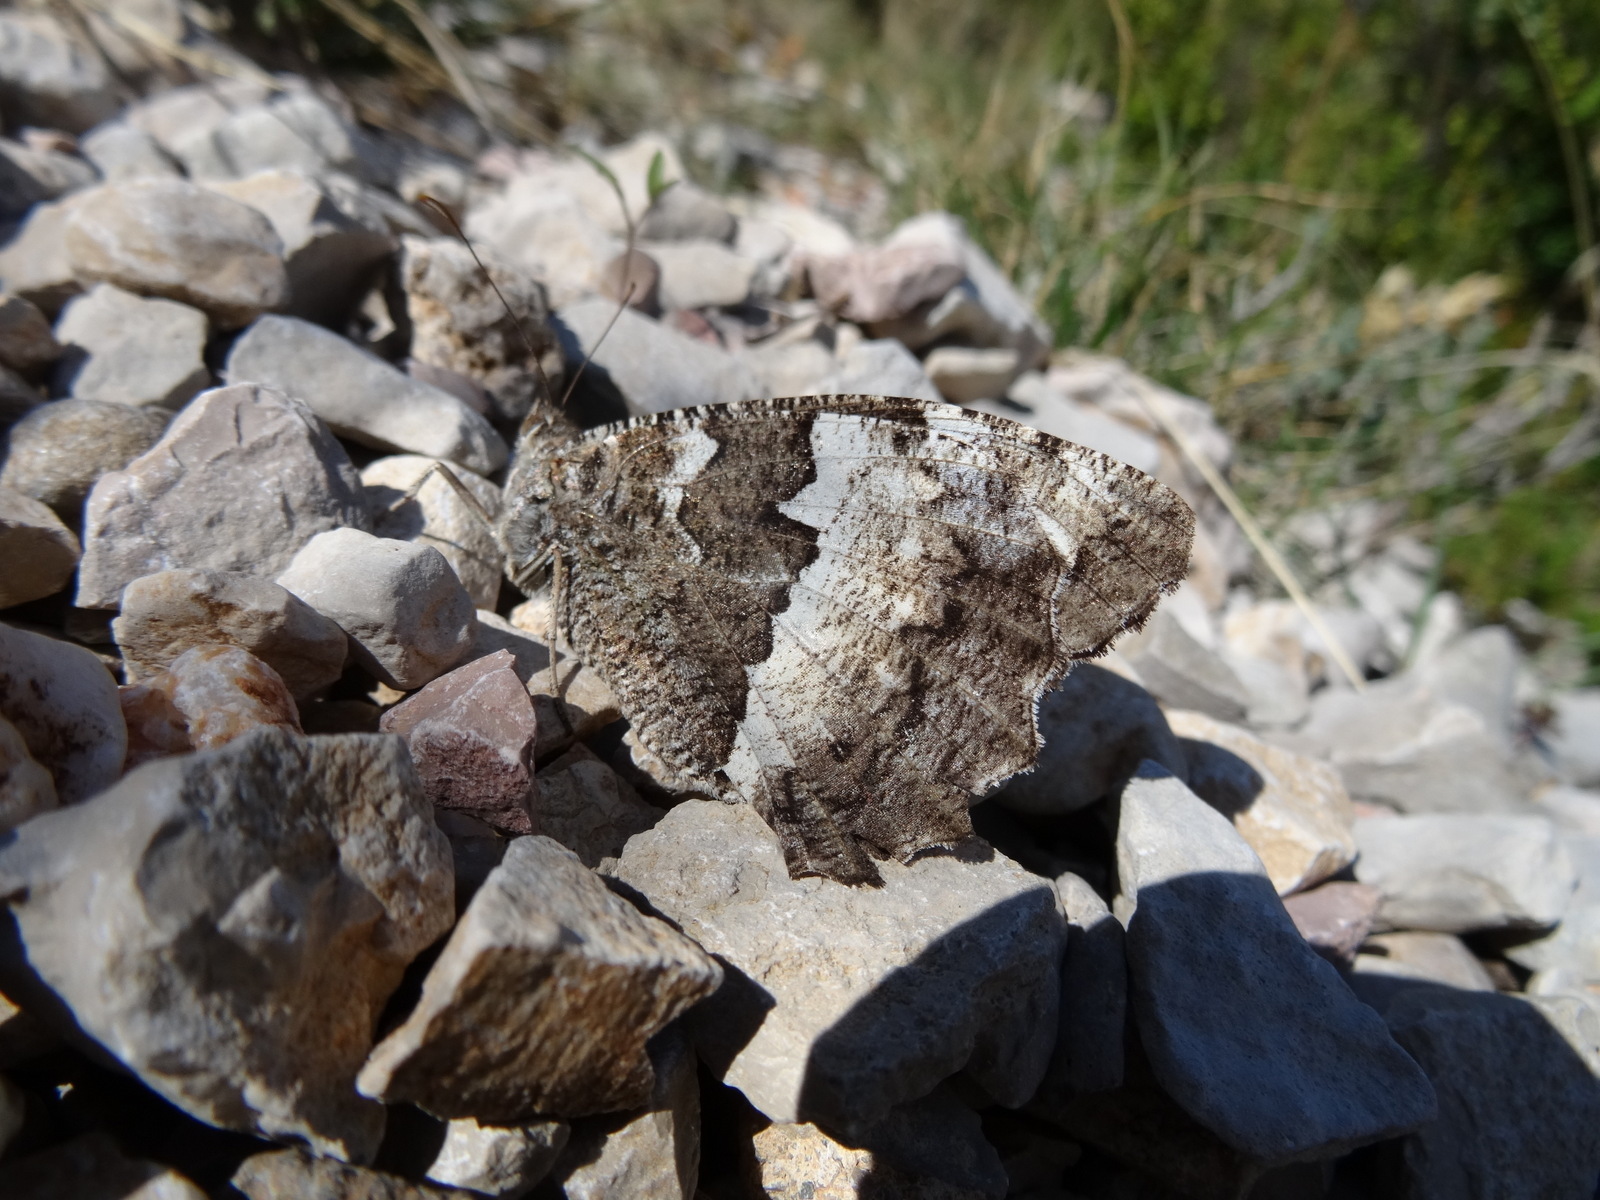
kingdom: Animalia
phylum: Arthropoda
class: Insecta
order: Lepidoptera
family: Lycaenidae
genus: Loweia
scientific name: Loweia tityrus
